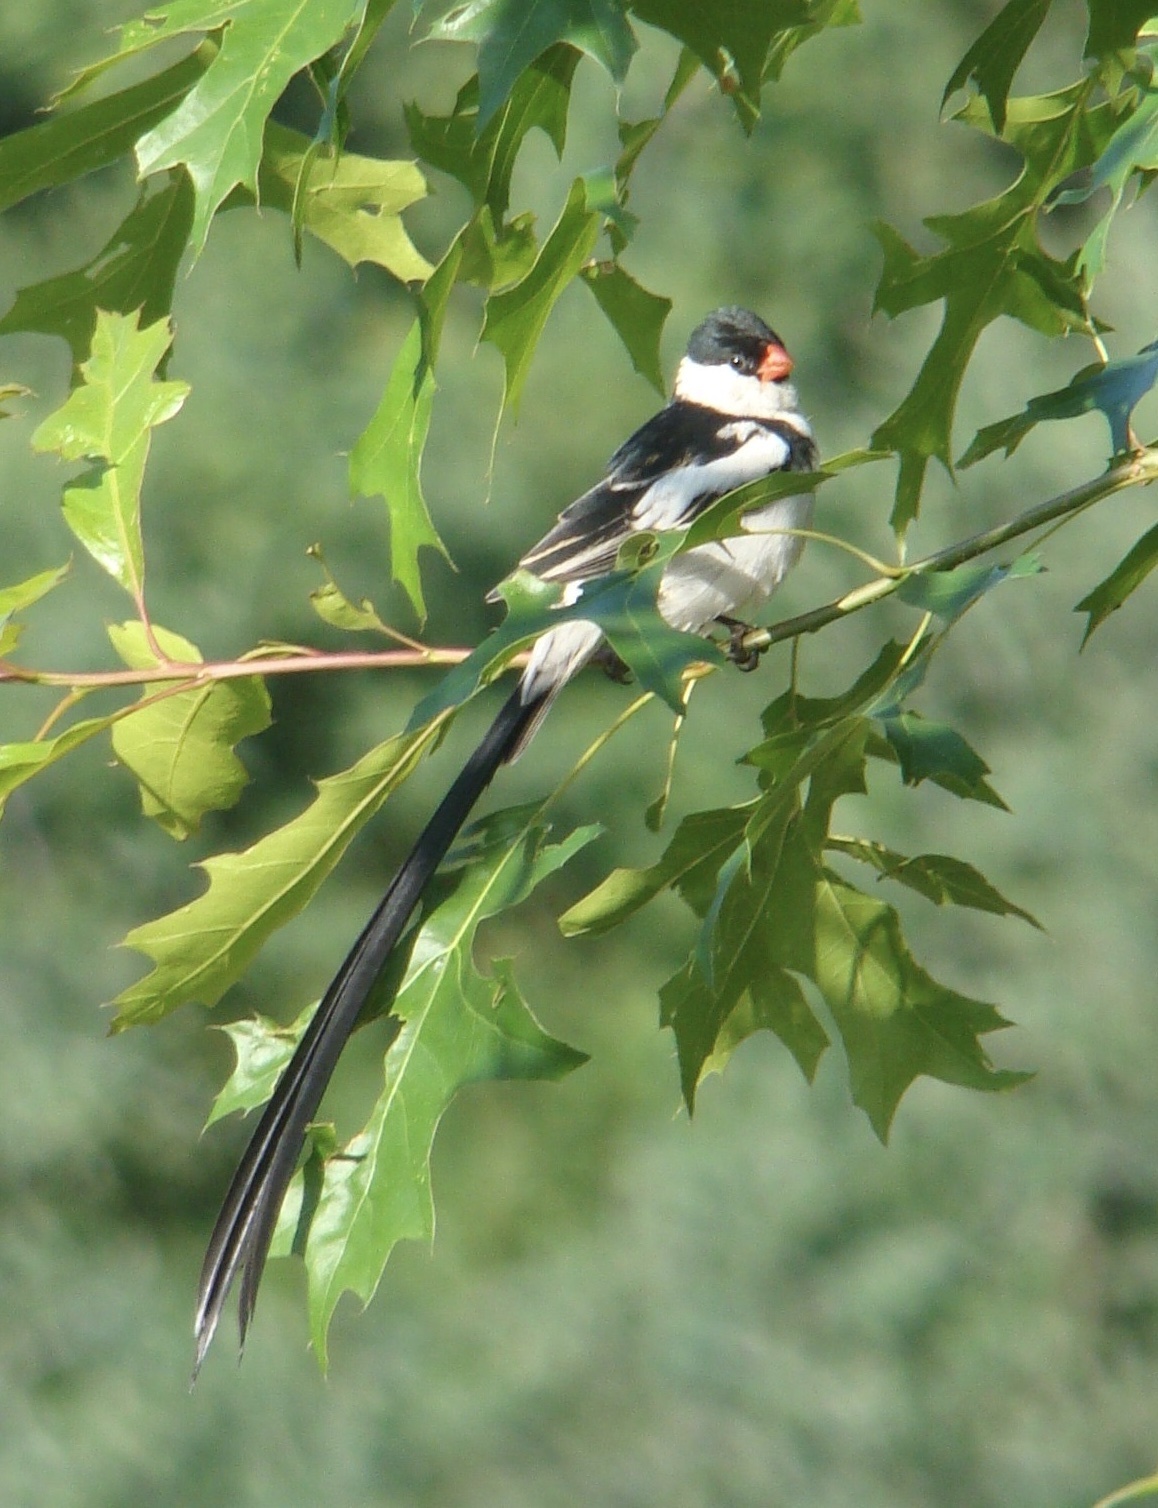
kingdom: Animalia
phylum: Chordata
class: Aves
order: Passeriformes
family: Viduidae
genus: Vidua
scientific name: Vidua macroura
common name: Pin-tailed whydah
